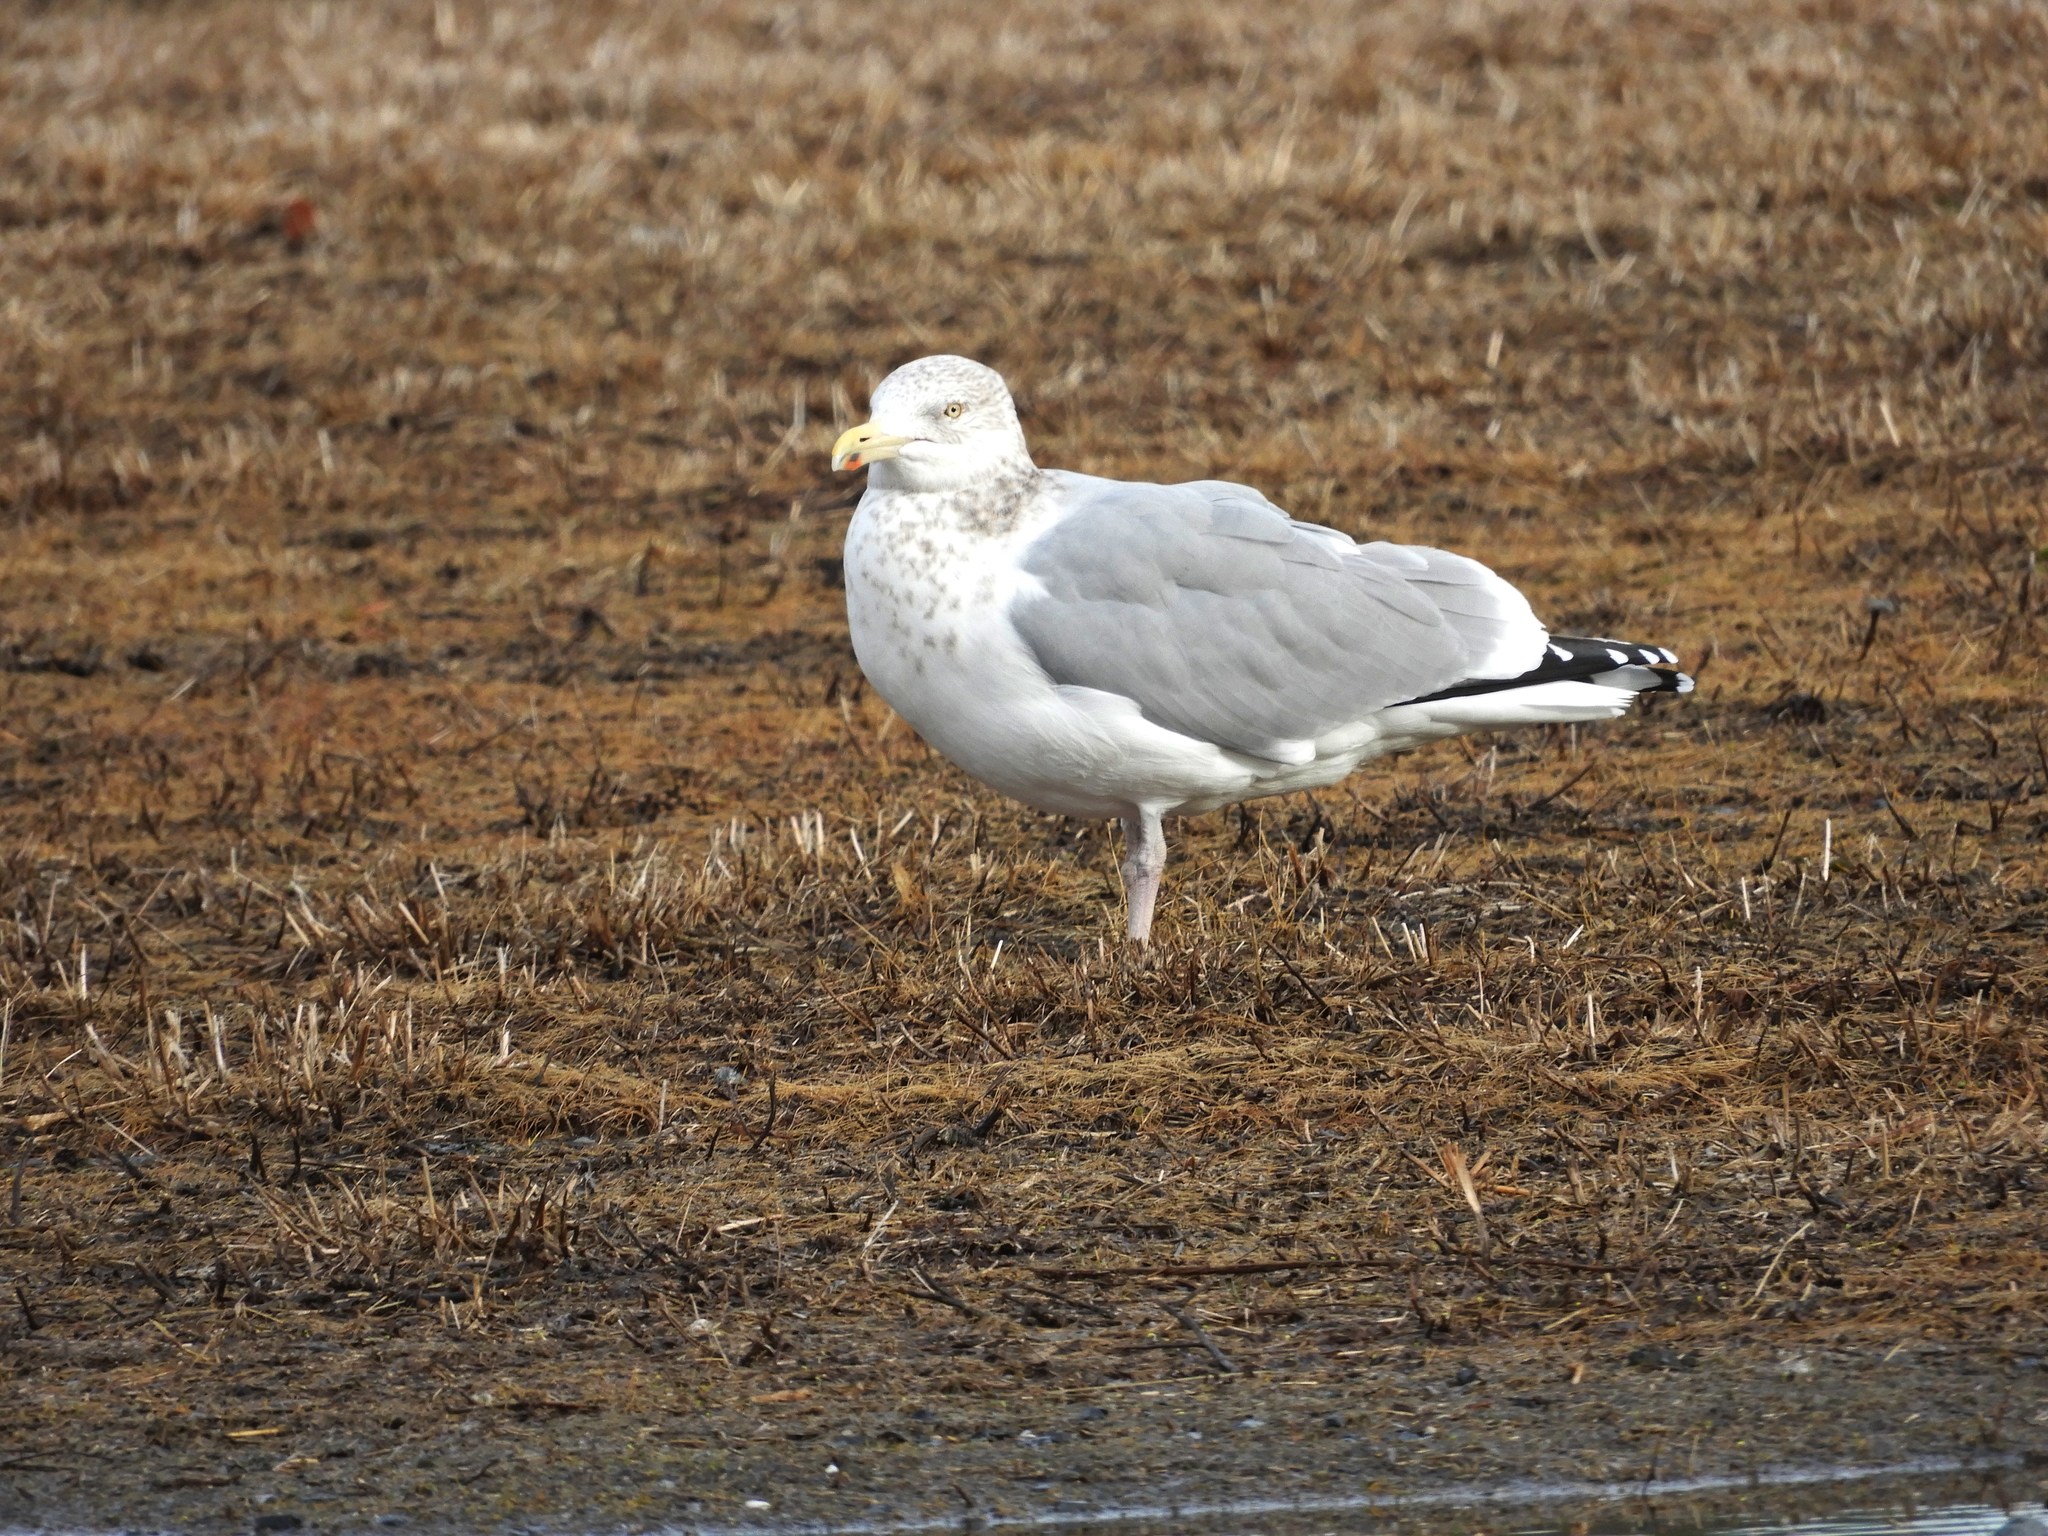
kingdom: Animalia
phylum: Chordata
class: Aves
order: Charadriiformes
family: Laridae
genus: Larus
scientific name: Larus smithsonianus
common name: American herring gull
